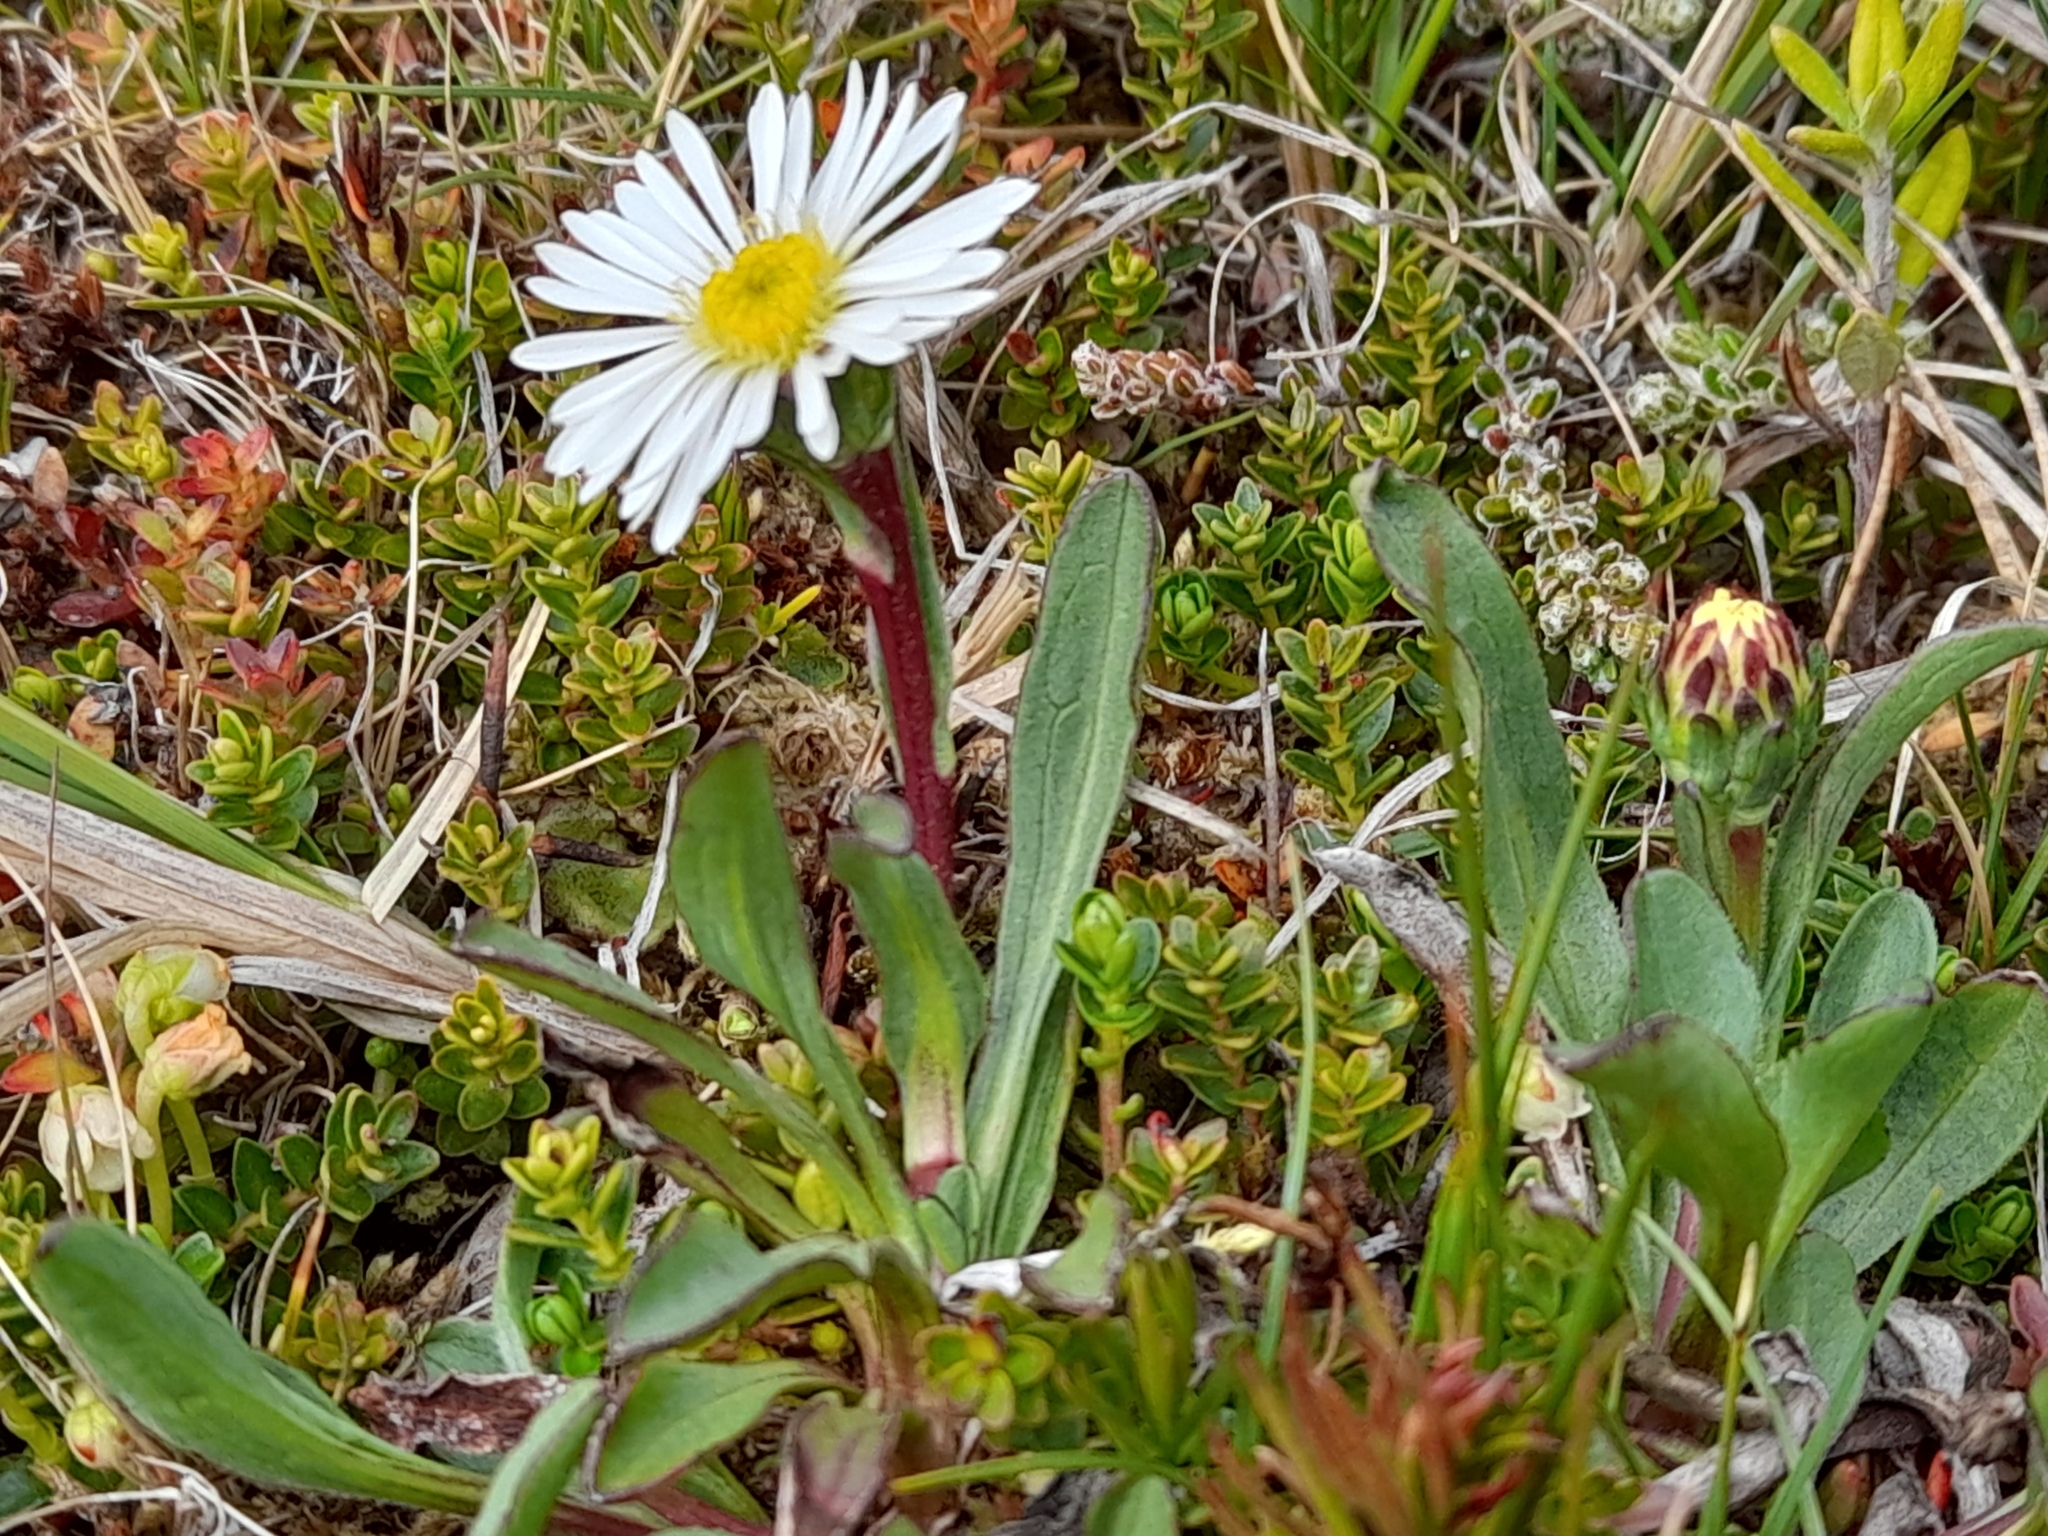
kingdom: Plantae
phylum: Tracheophyta
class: Magnoliopsida
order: Asterales
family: Asteraceae
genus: Symphyotrichum
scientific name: Symphyotrichum vahlii
